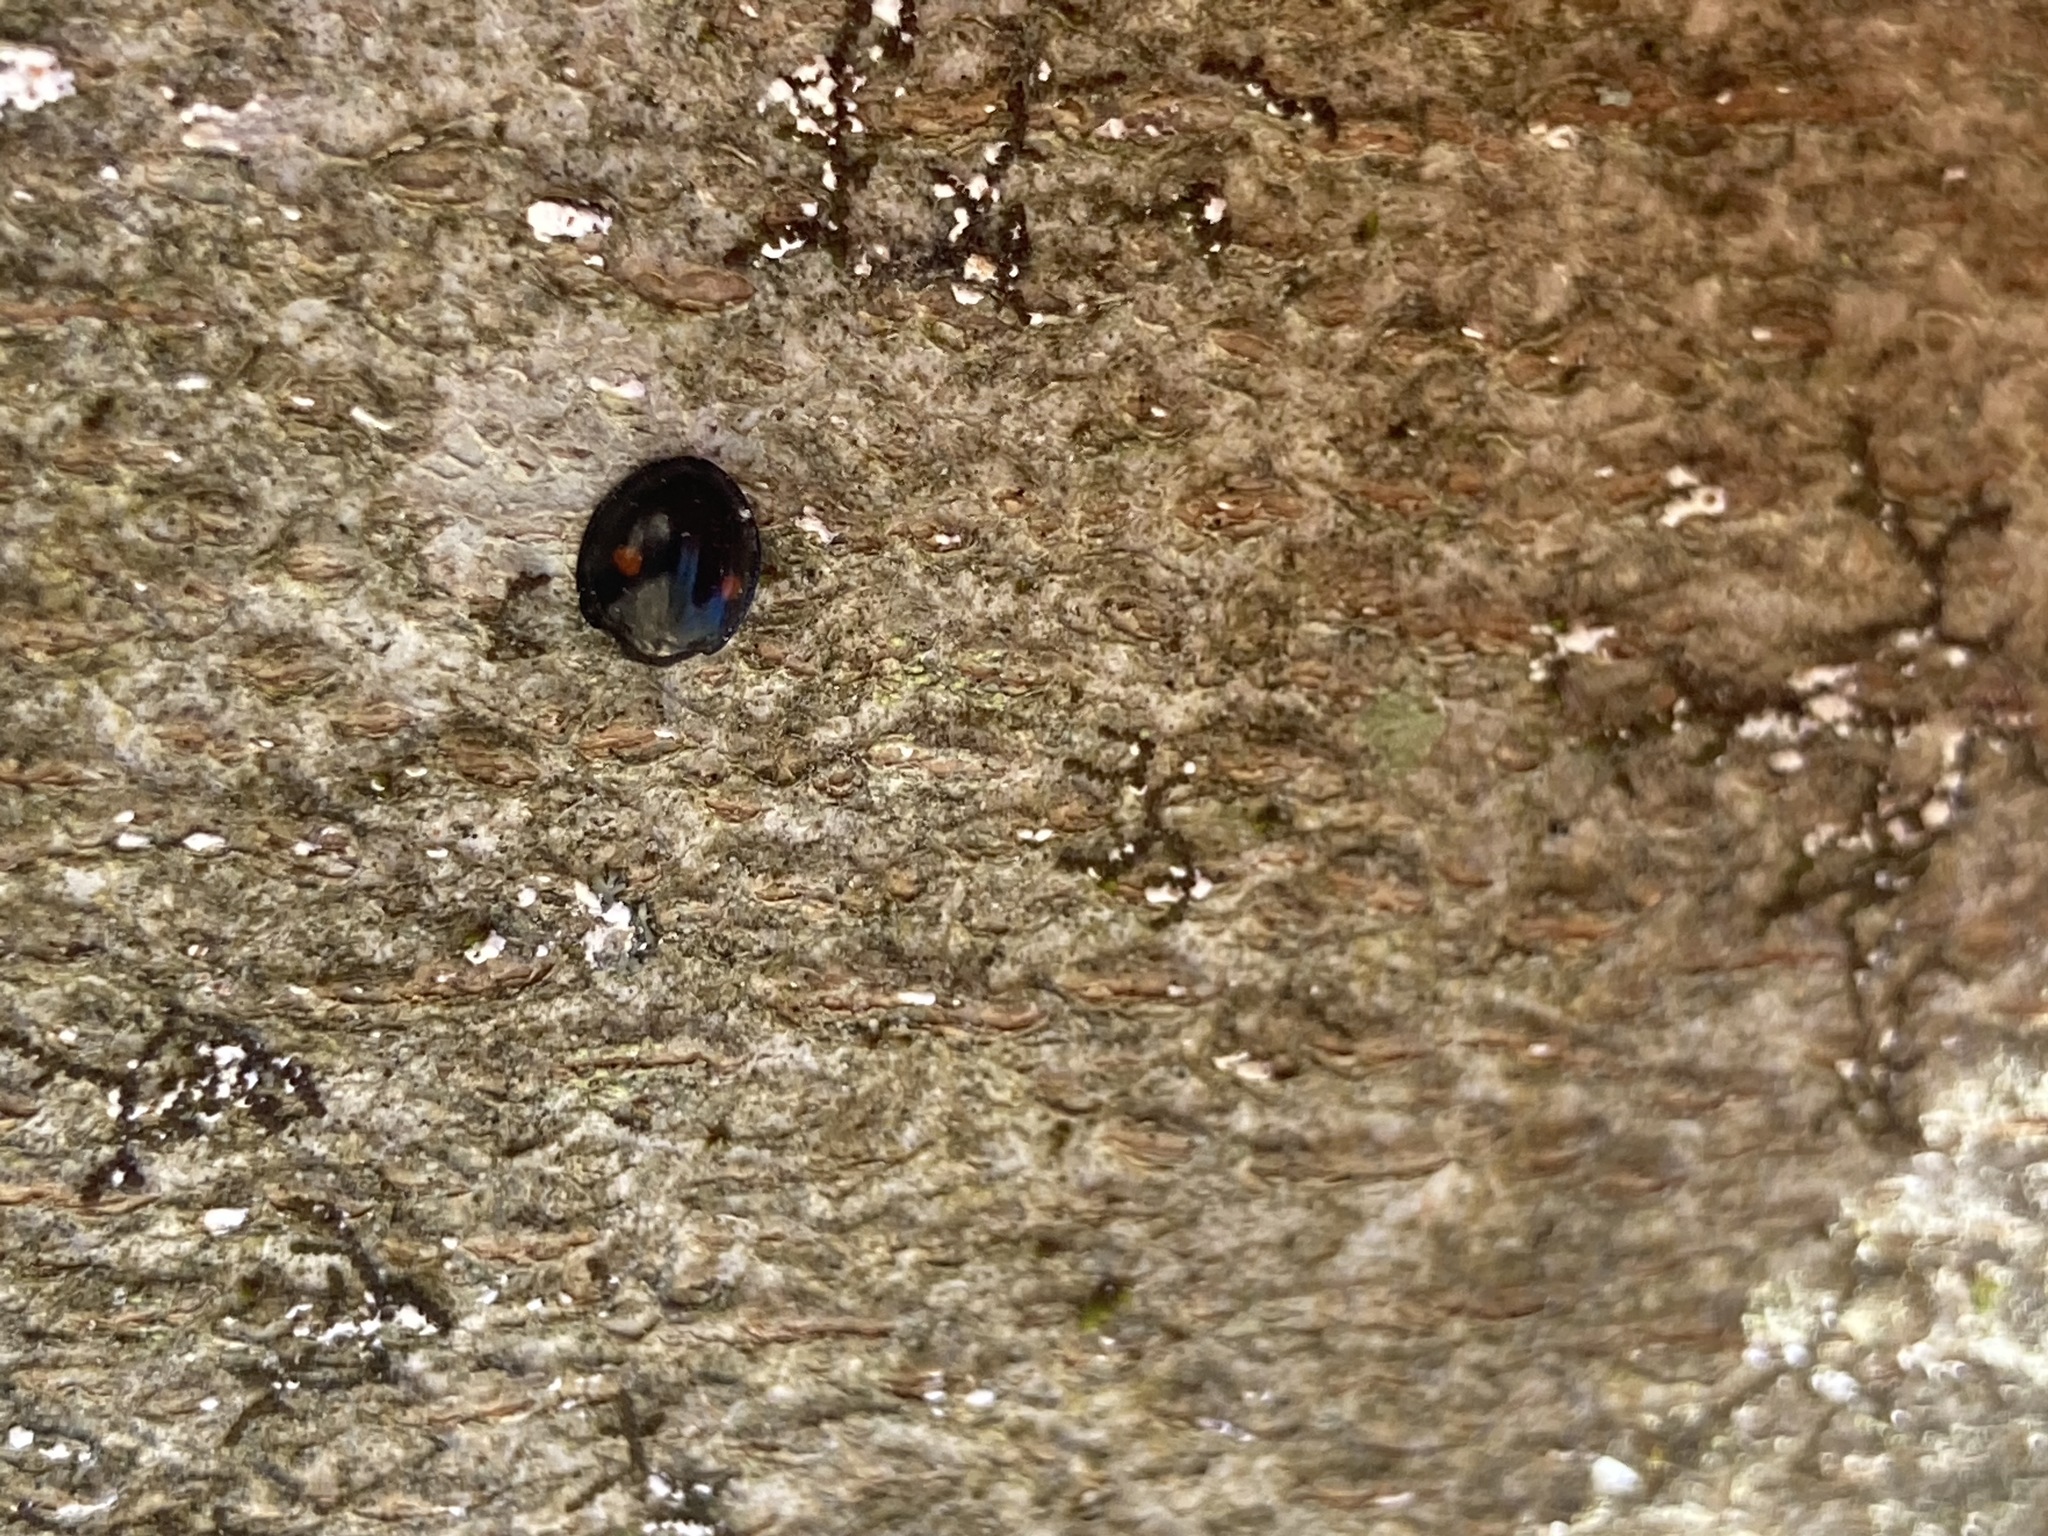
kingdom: Animalia
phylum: Arthropoda
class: Insecta
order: Coleoptera
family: Coccinellidae
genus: Chilocorus
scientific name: Chilocorus stigma
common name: Twicestabbed lady beetle
